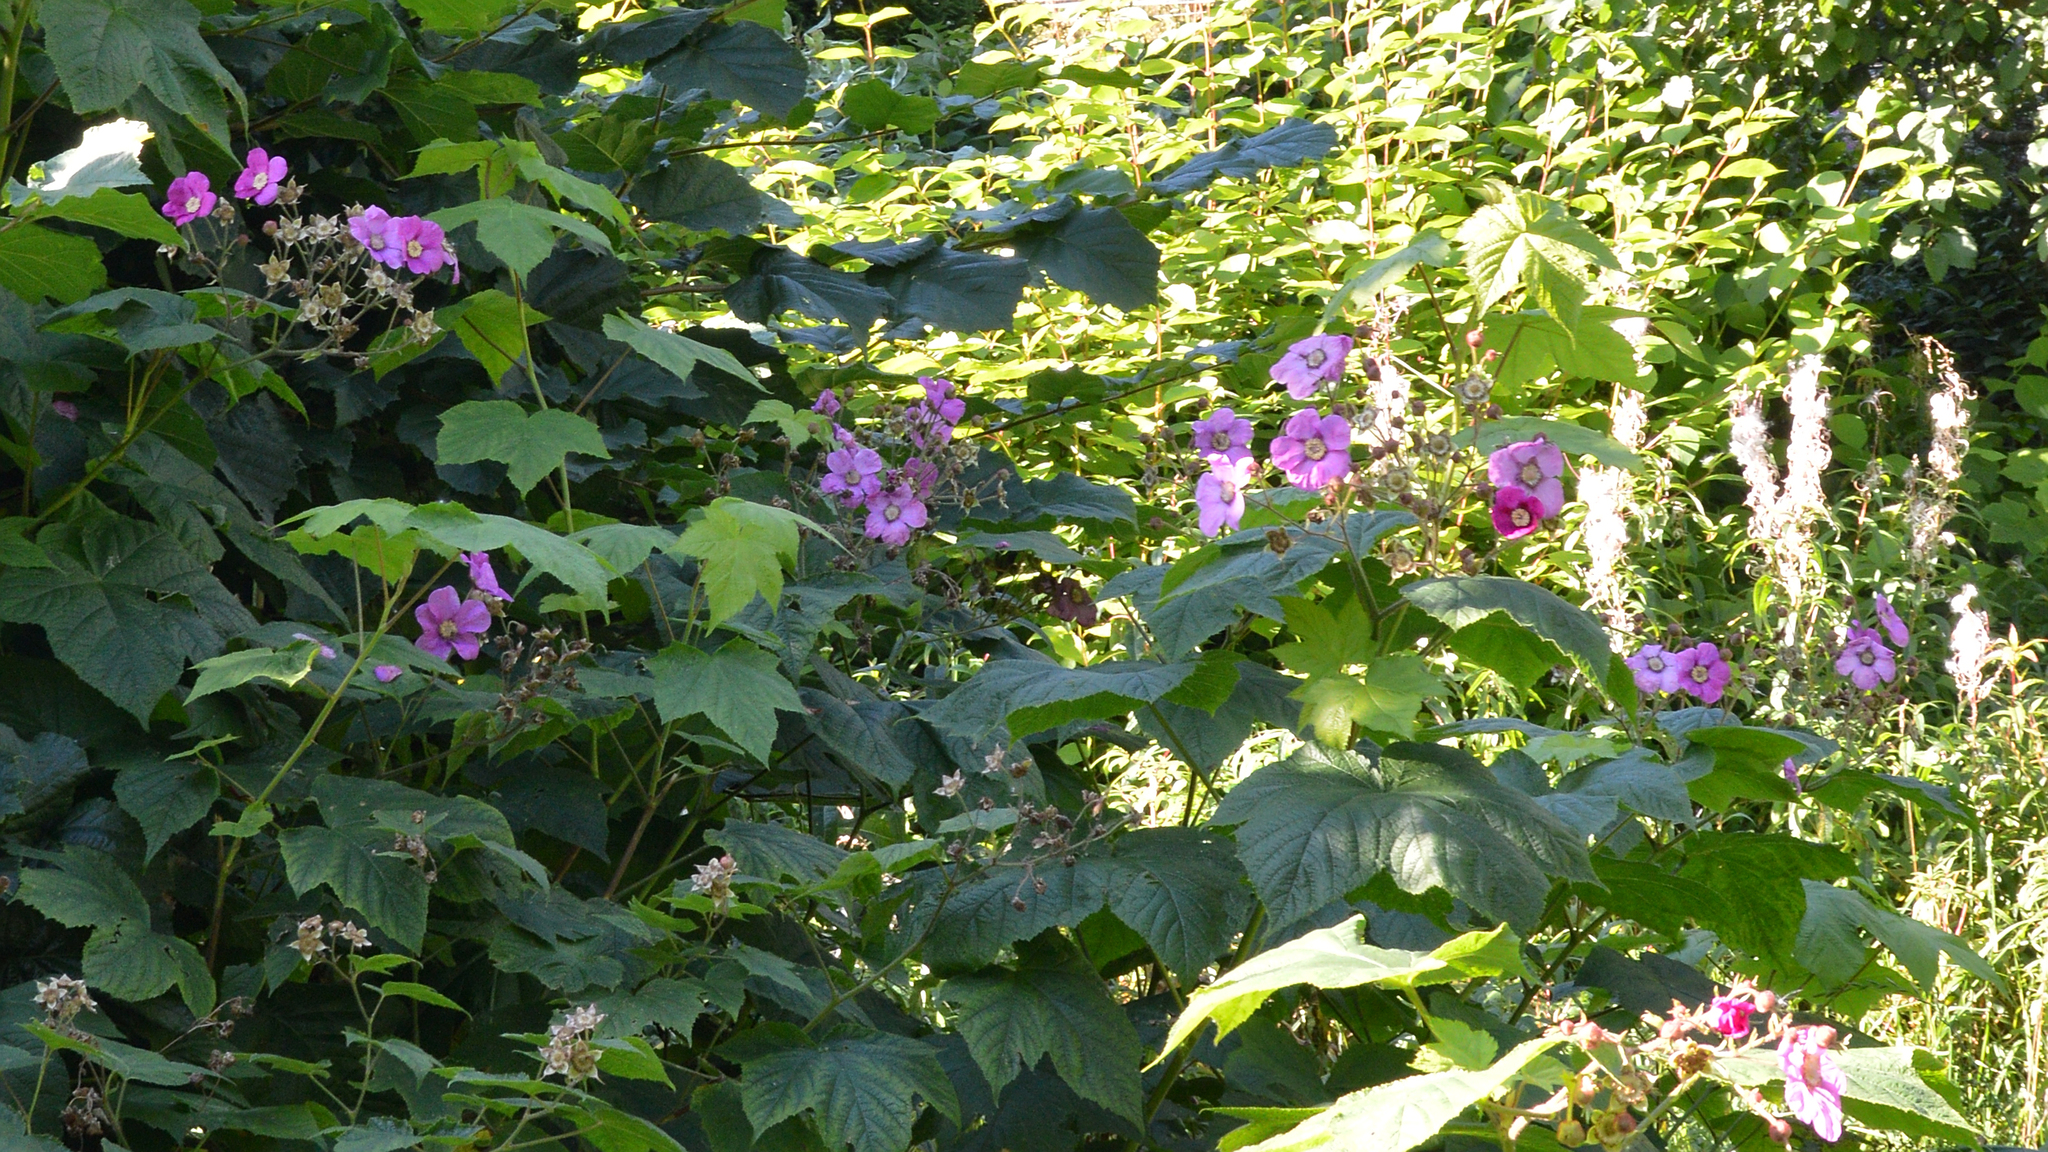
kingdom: Plantae
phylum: Tracheophyta
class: Magnoliopsida
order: Rosales
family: Rosaceae
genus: Rubus
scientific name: Rubus odoratus
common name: Purple-flowered raspberry
